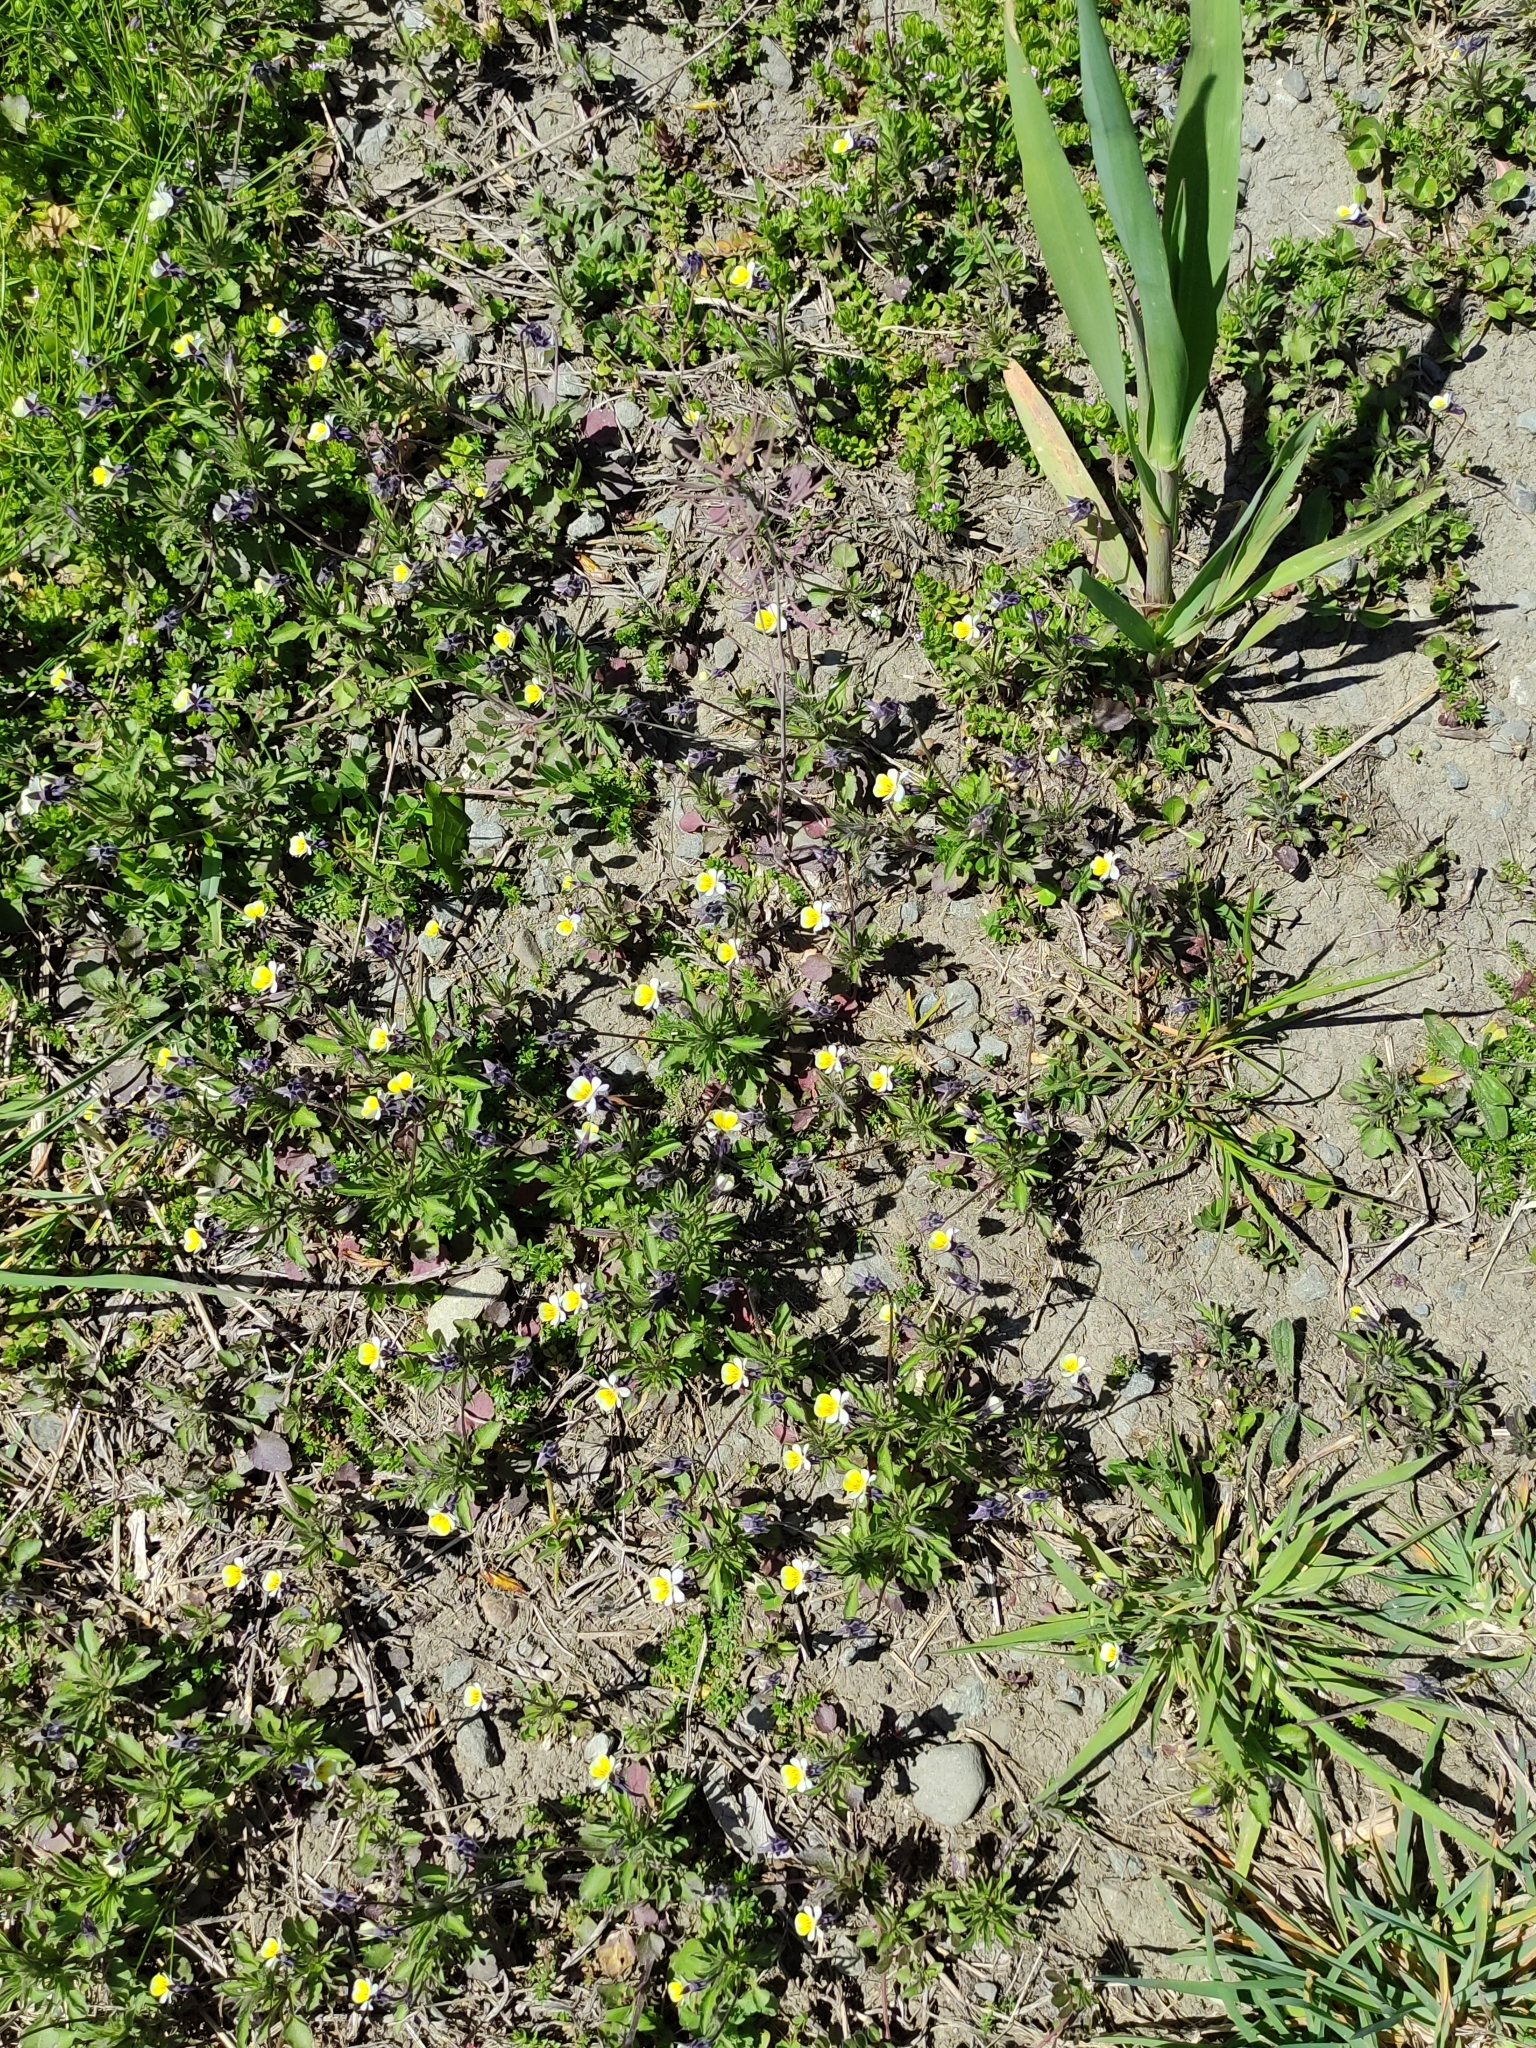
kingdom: Plantae
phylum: Tracheophyta
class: Magnoliopsida
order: Malpighiales
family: Violaceae
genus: Viola
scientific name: Viola arvensis
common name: Field pansy
